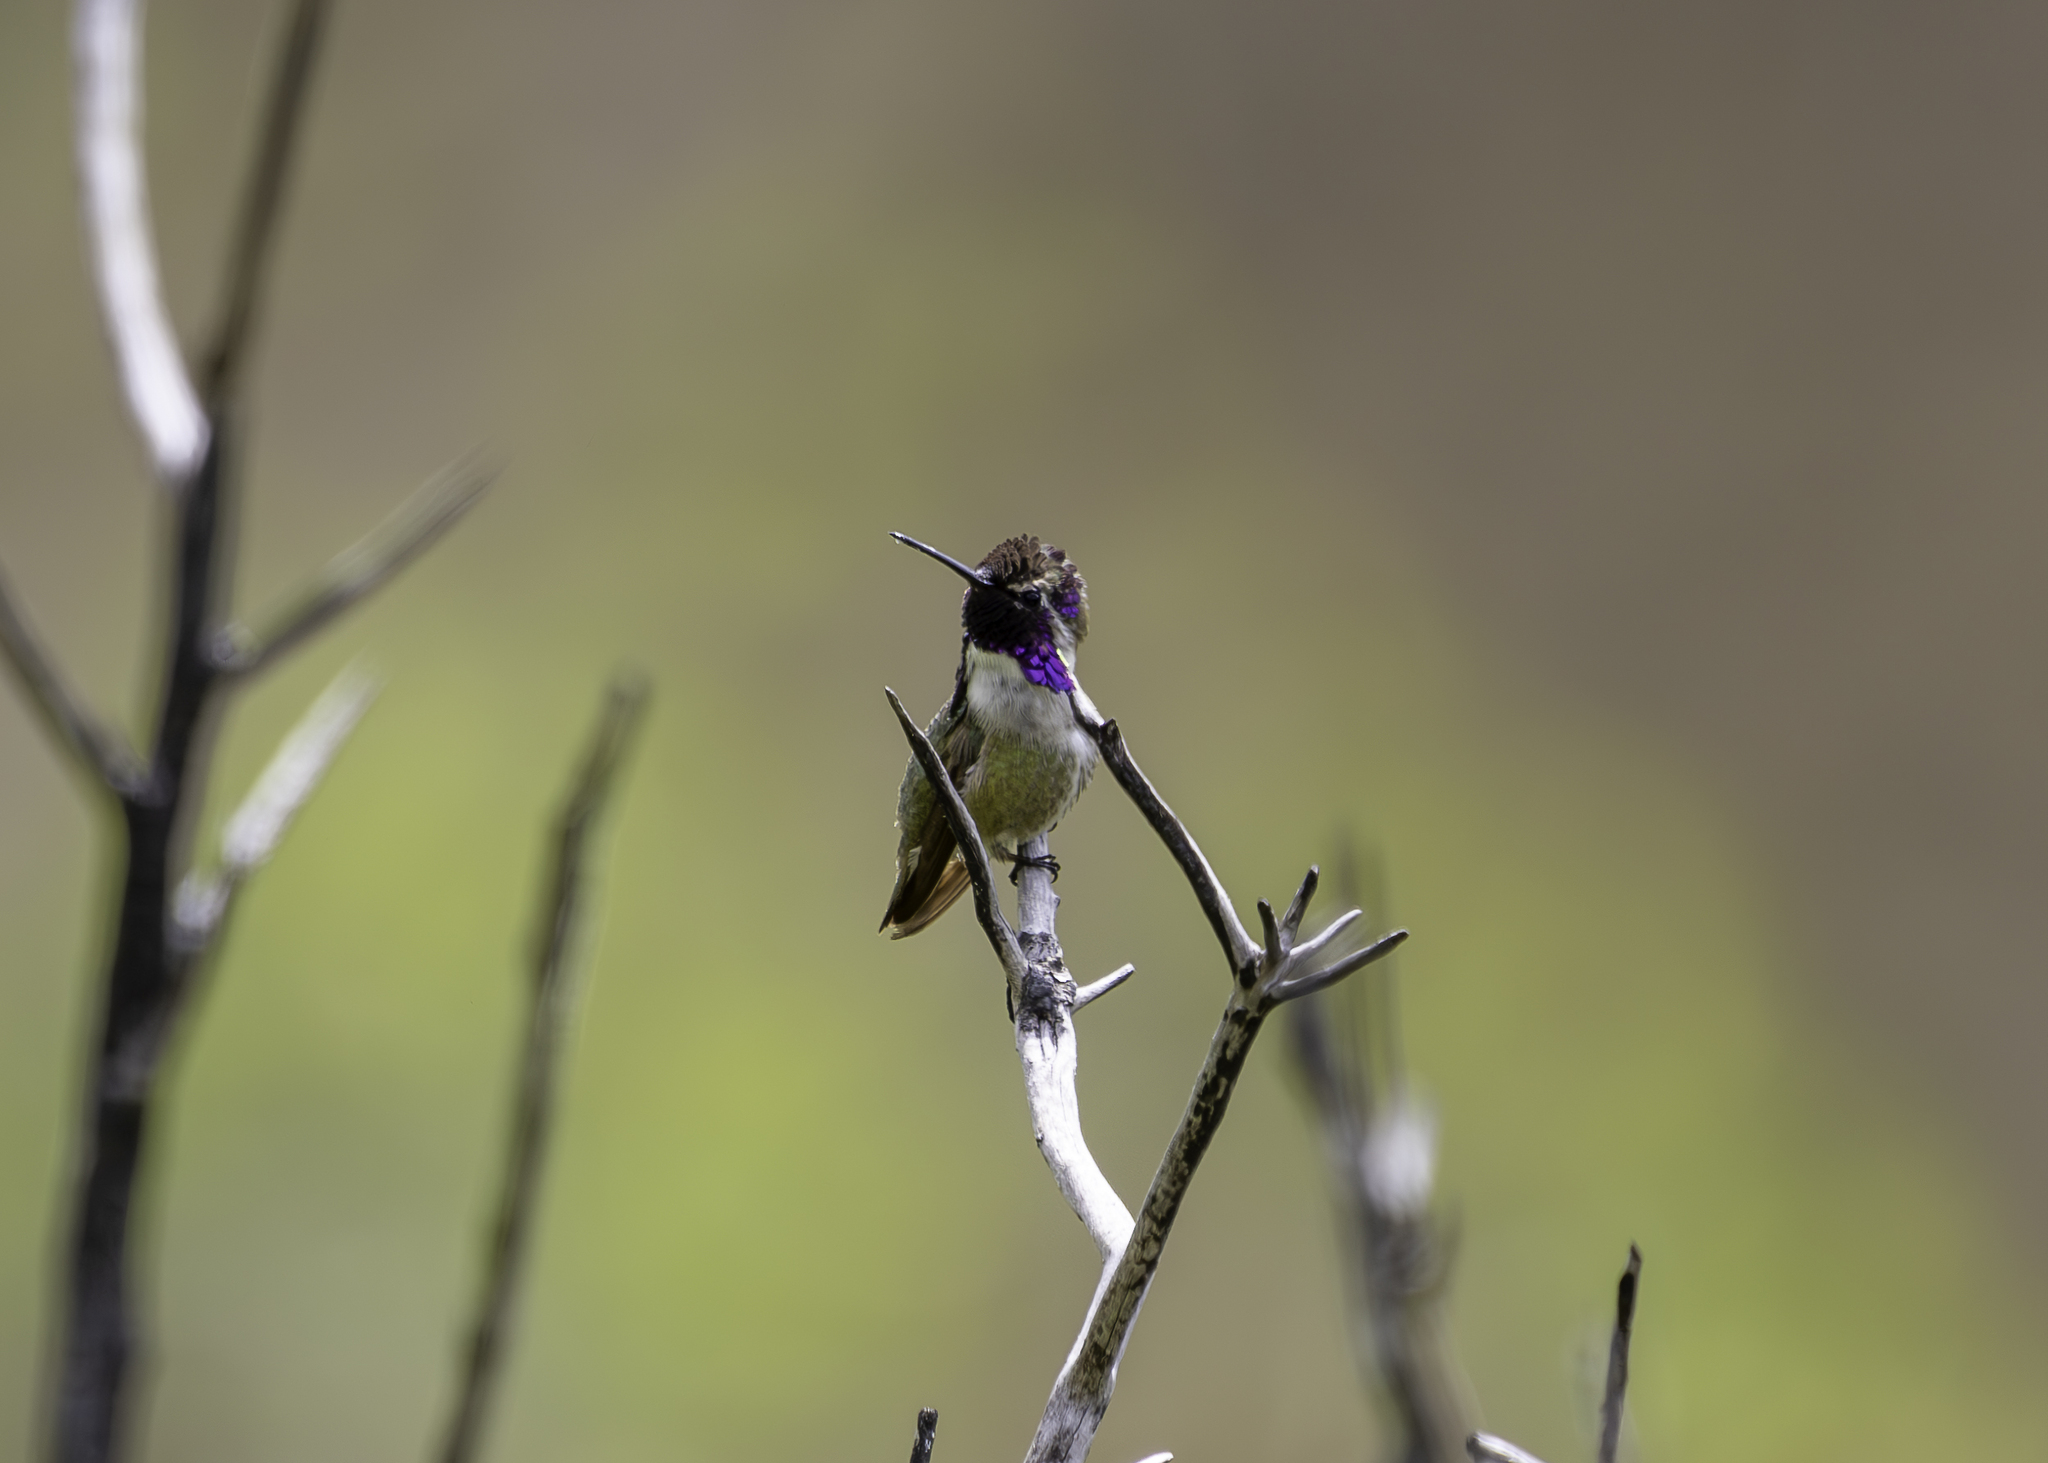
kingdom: Animalia
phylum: Chordata
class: Aves
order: Apodiformes
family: Trochilidae
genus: Calypte
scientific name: Calypte costae
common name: Costa's hummingbird
